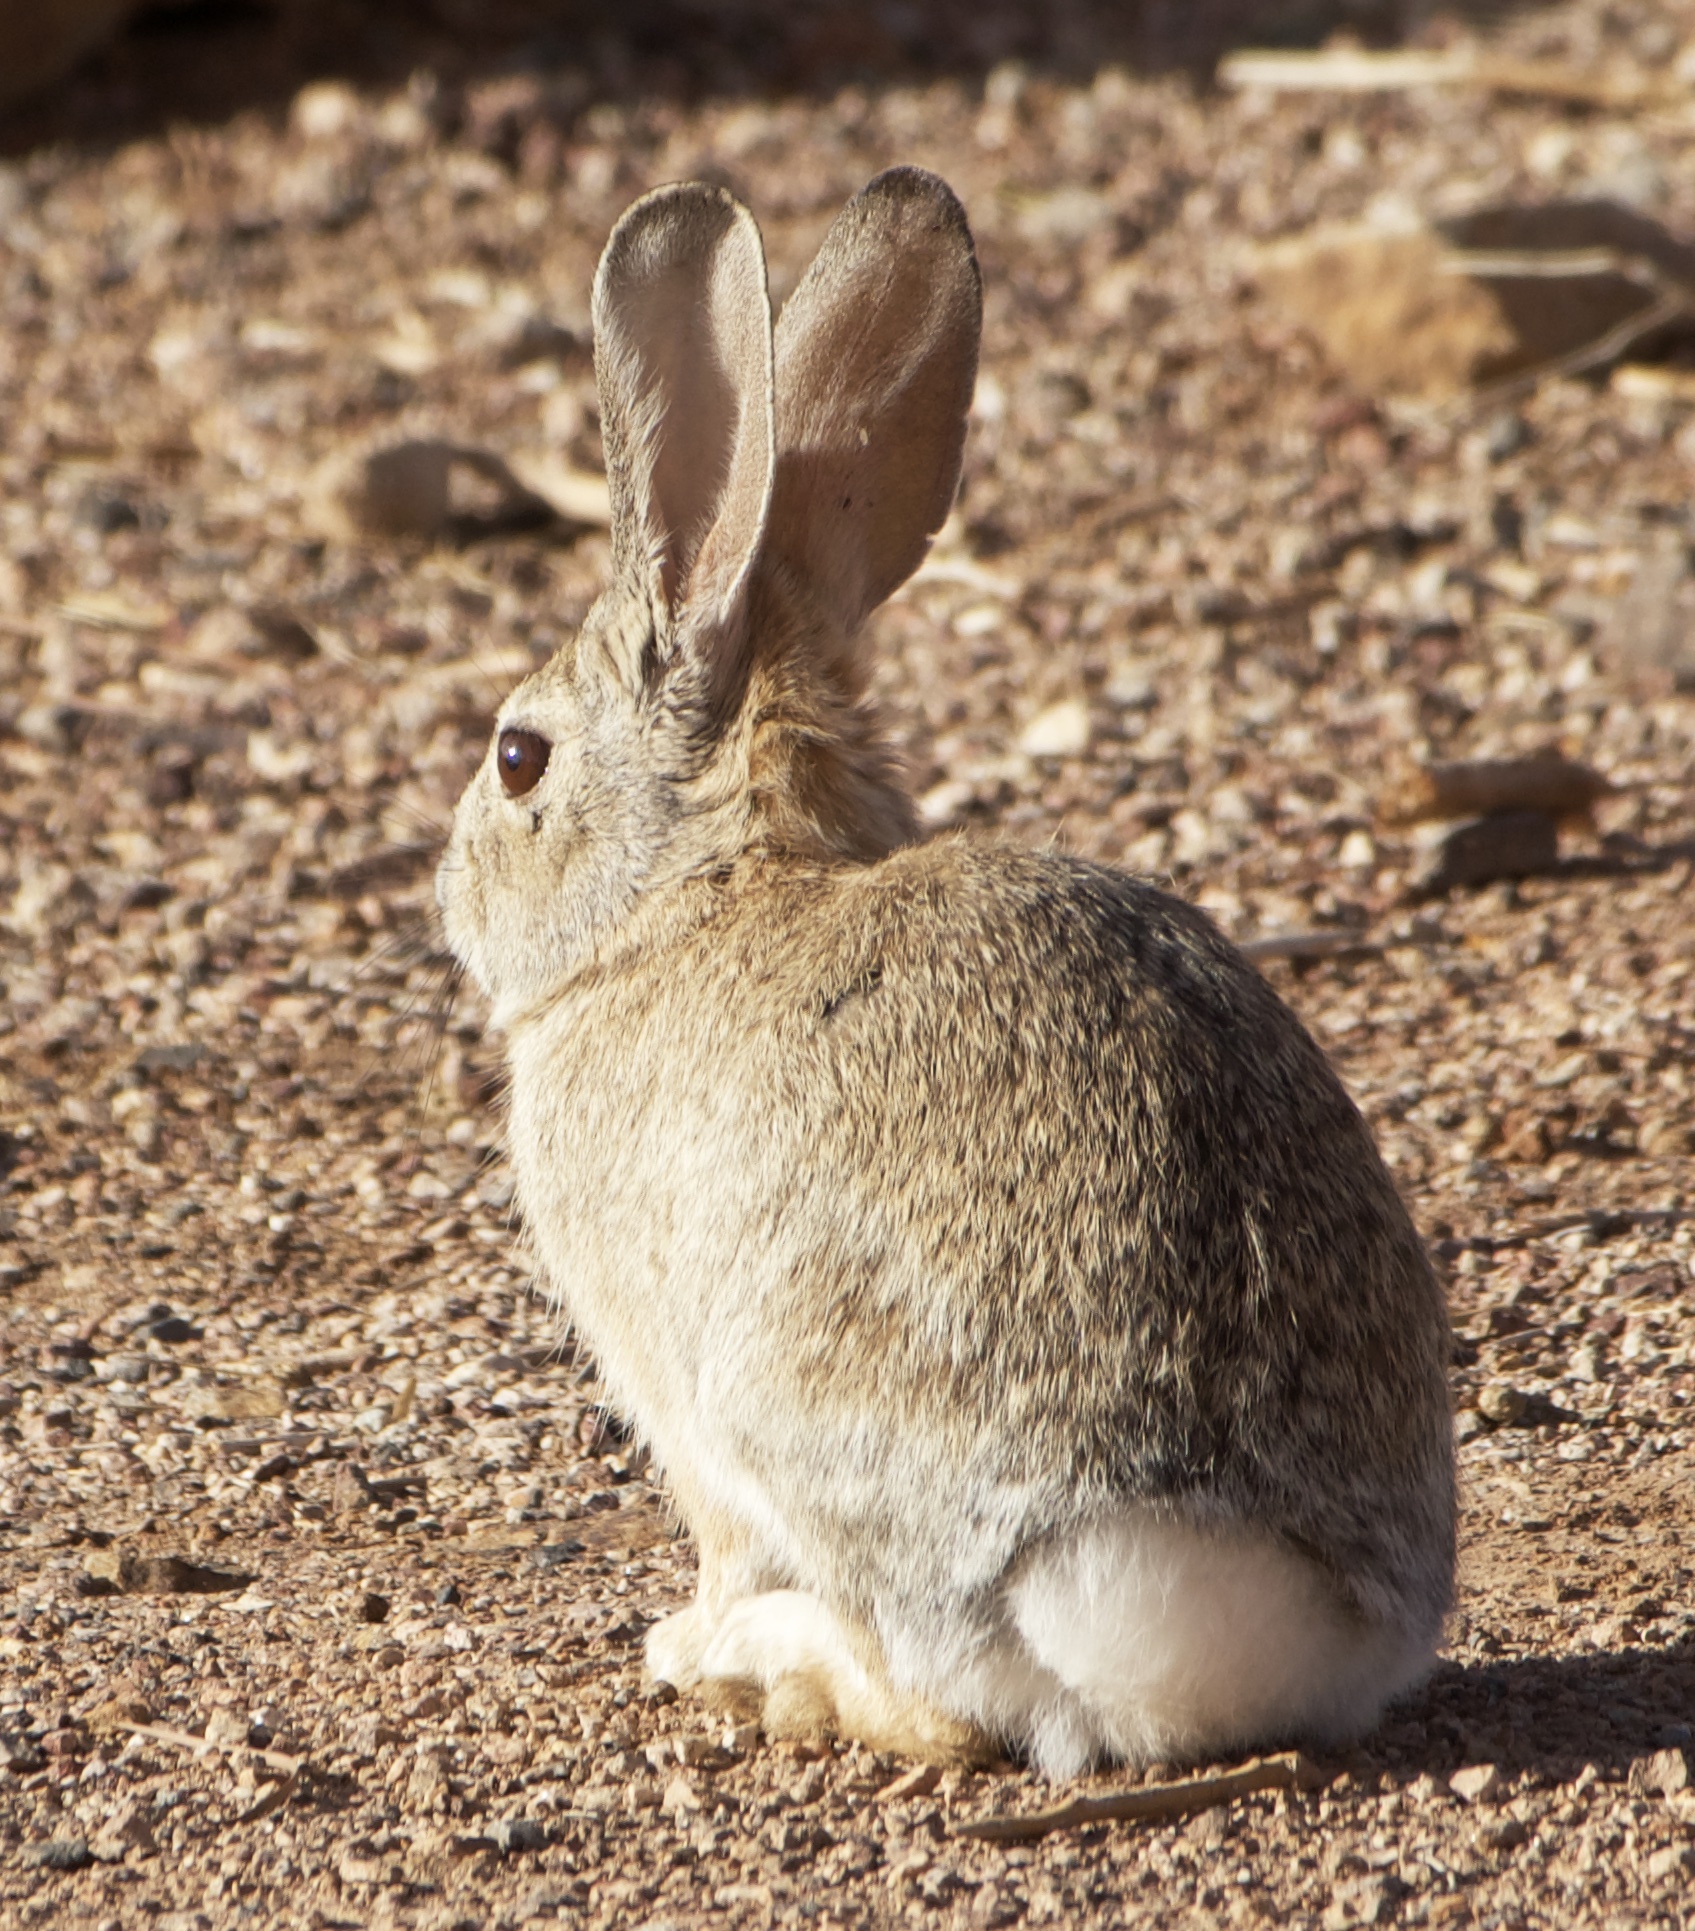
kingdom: Animalia
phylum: Chordata
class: Mammalia
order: Lagomorpha
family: Leporidae
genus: Sylvilagus
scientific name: Sylvilagus audubonii
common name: Desert cottontail
